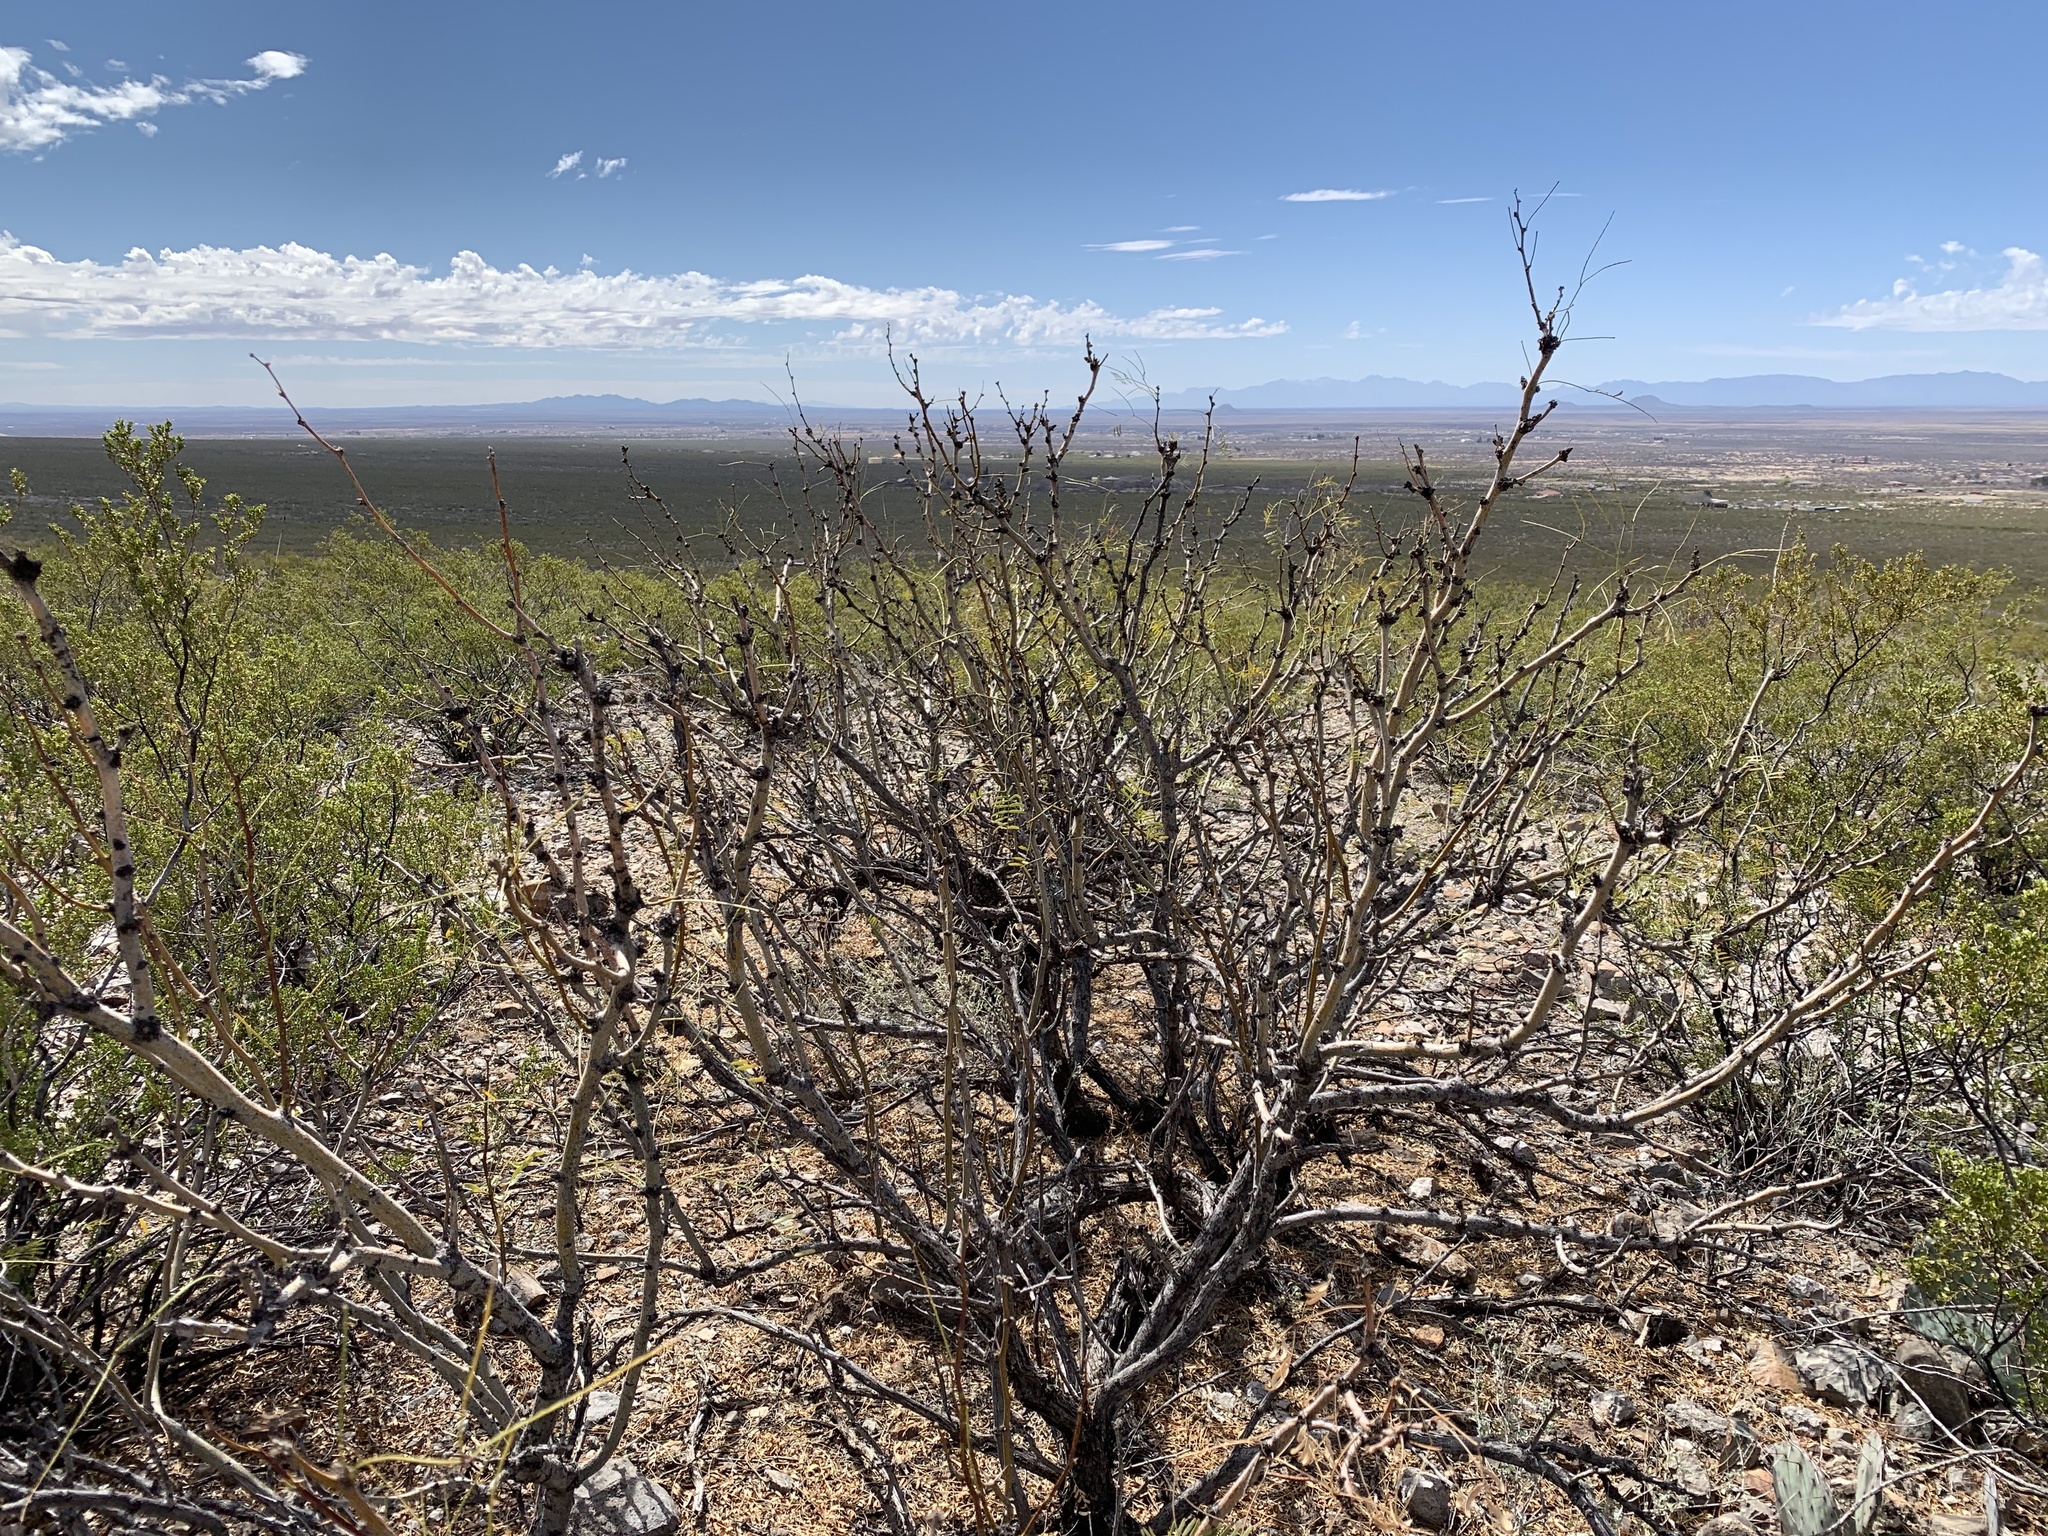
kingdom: Plantae
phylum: Tracheophyta
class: Magnoliopsida
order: Fabales
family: Fabaceae
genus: Prosopis
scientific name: Prosopis glandulosa
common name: Honey mesquite
